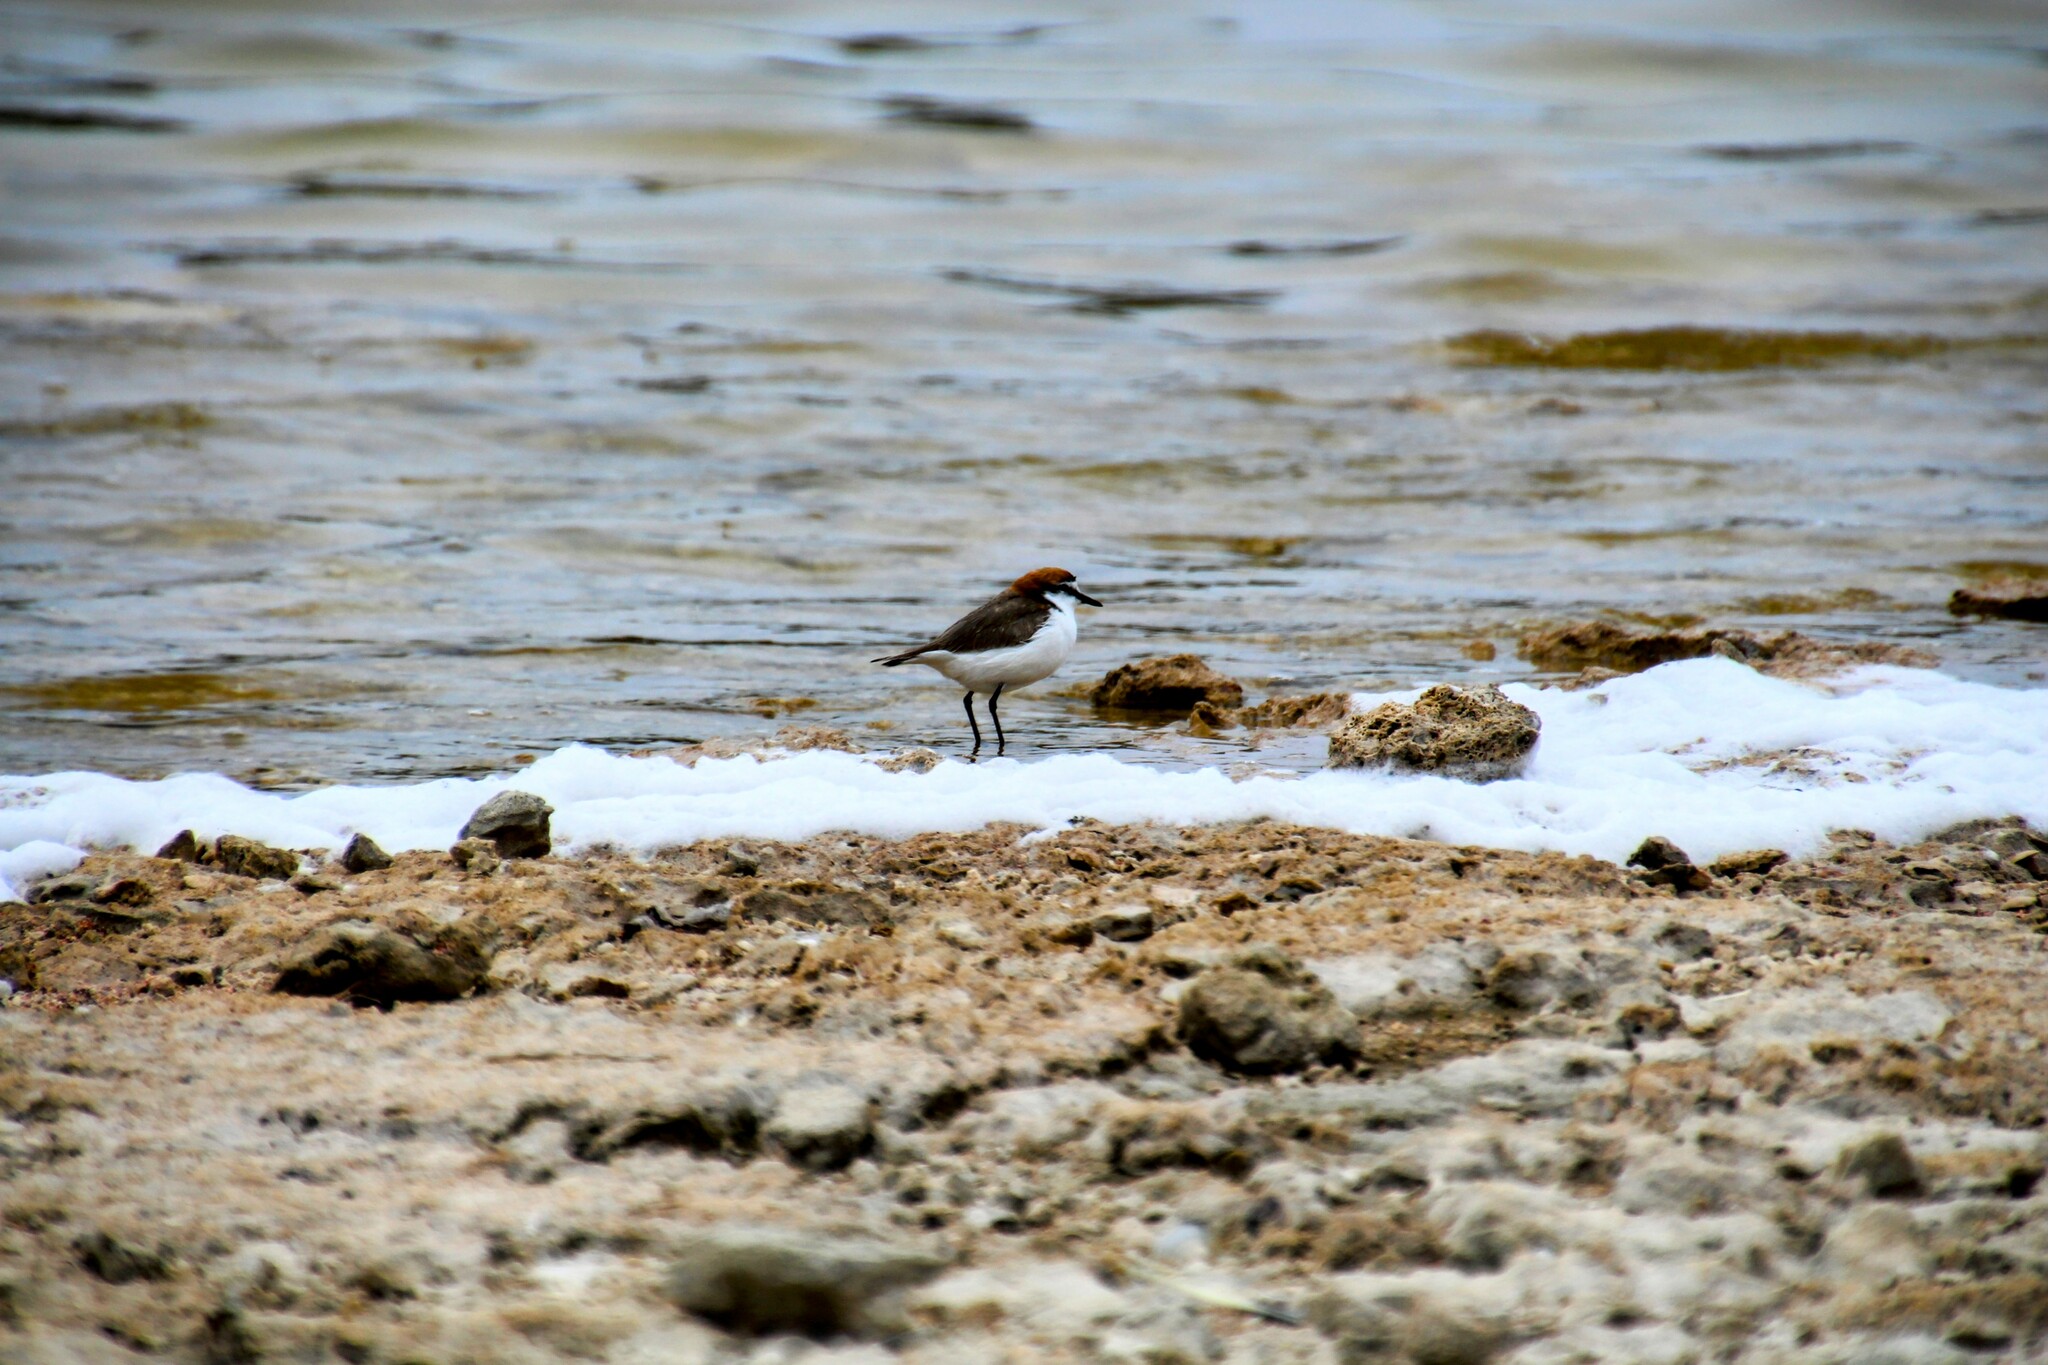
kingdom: Animalia
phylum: Chordata
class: Aves
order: Charadriiformes
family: Charadriidae
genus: Anarhynchus
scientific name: Anarhynchus
